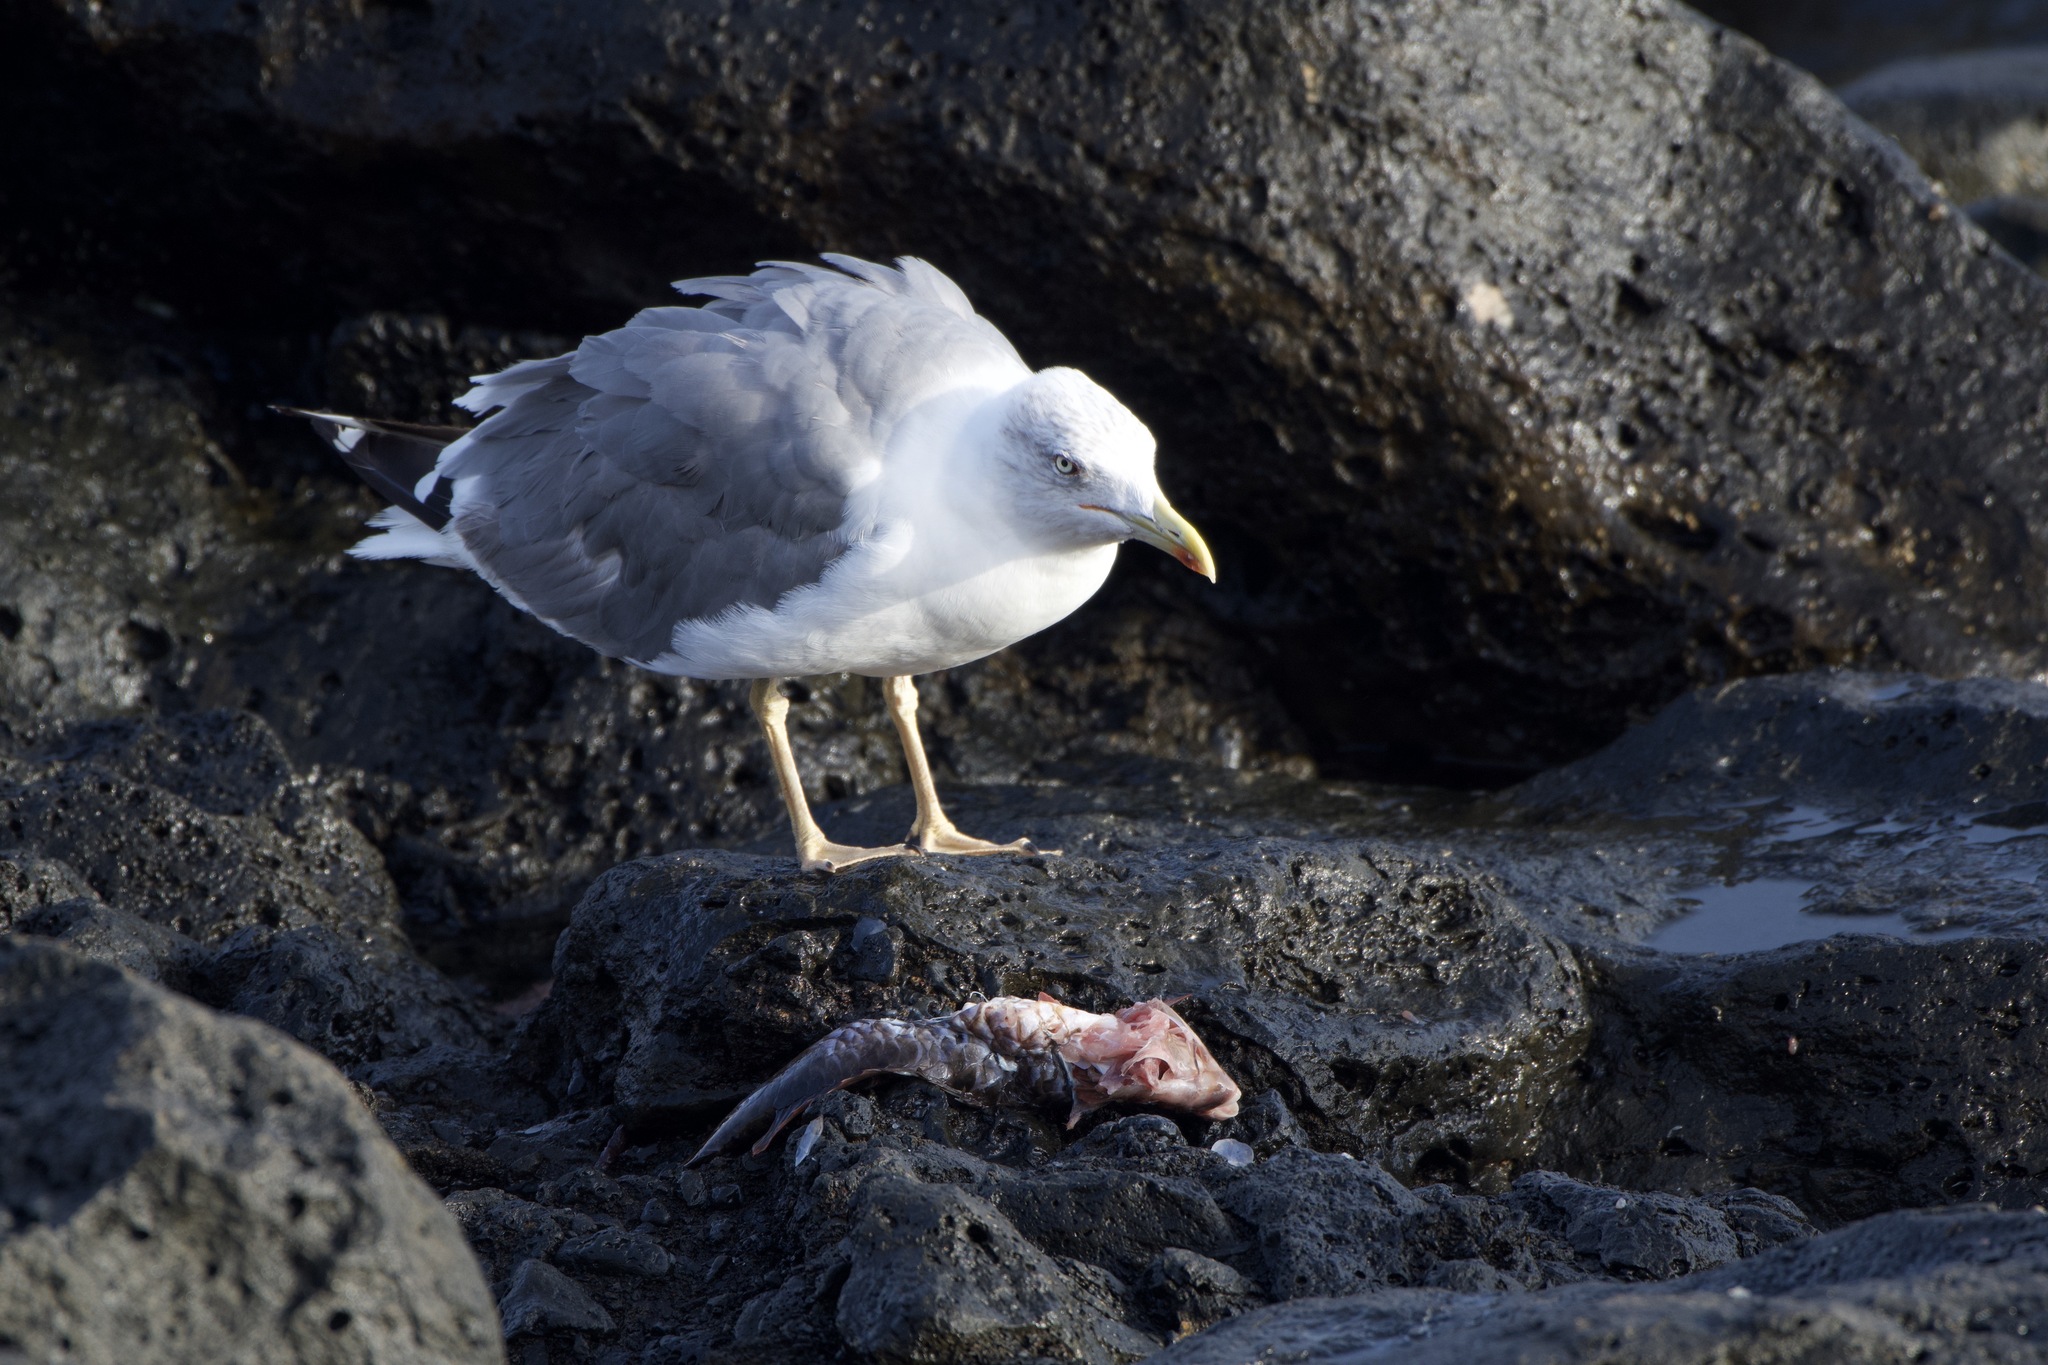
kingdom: Animalia
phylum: Chordata
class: Aves
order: Charadriiformes
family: Laridae
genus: Larus
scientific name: Larus michahellis
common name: Yellow-legged gull
